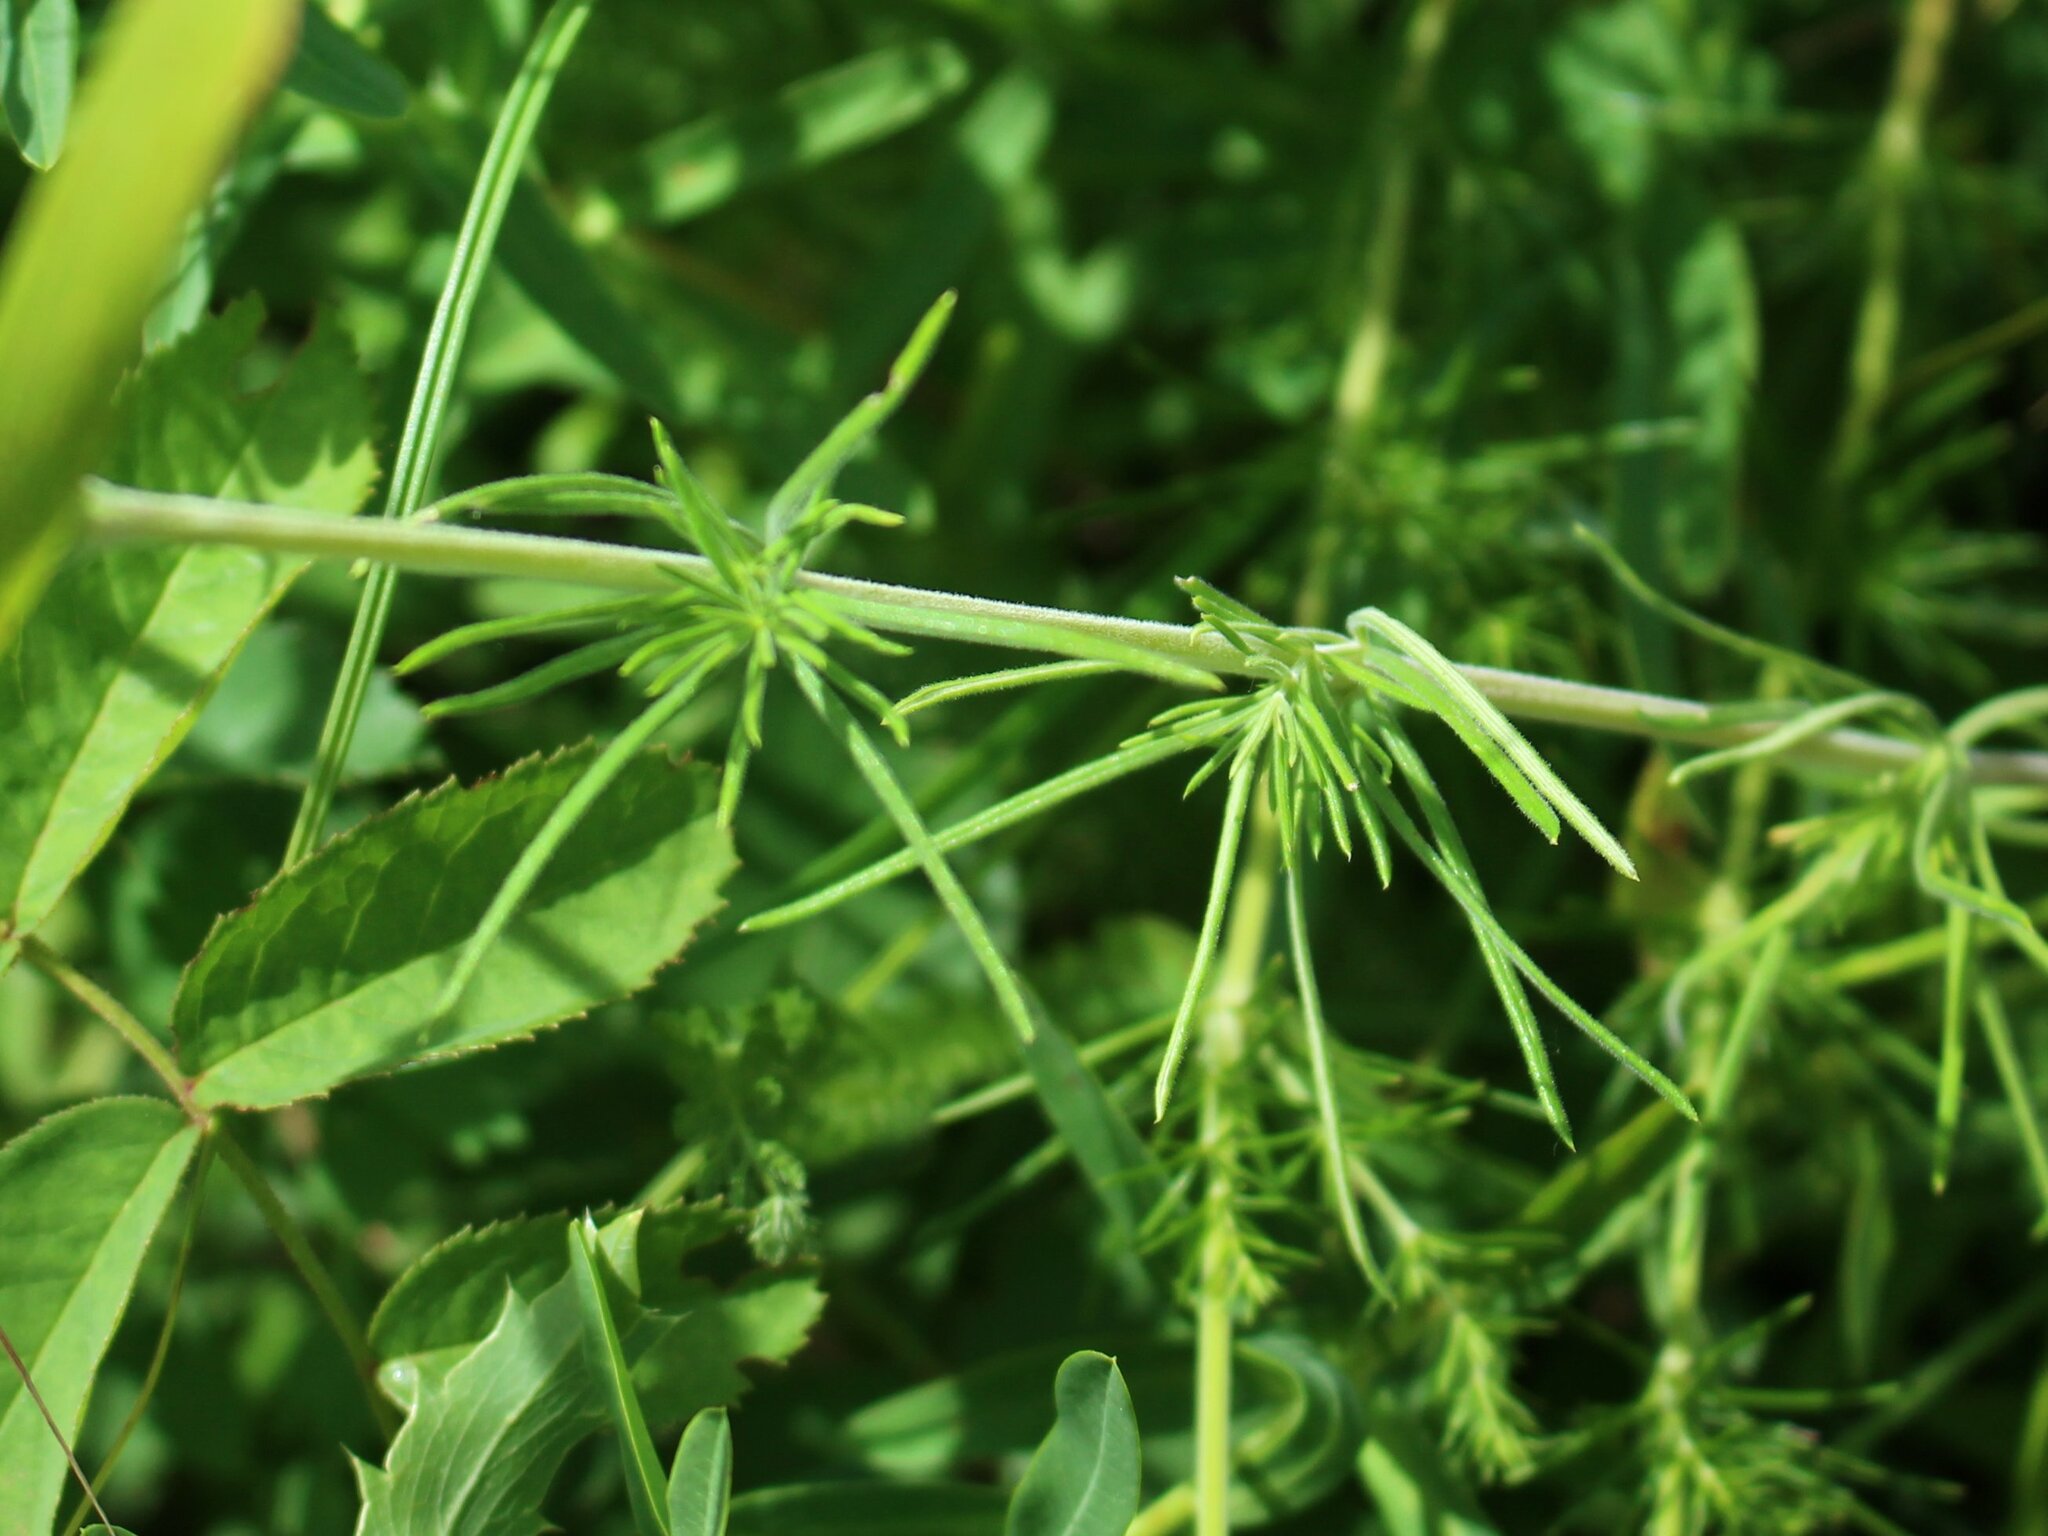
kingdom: Plantae
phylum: Tracheophyta
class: Magnoliopsida
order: Gentianales
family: Rubiaceae
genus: Galium
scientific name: Galium verum
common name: Lady's bedstraw
